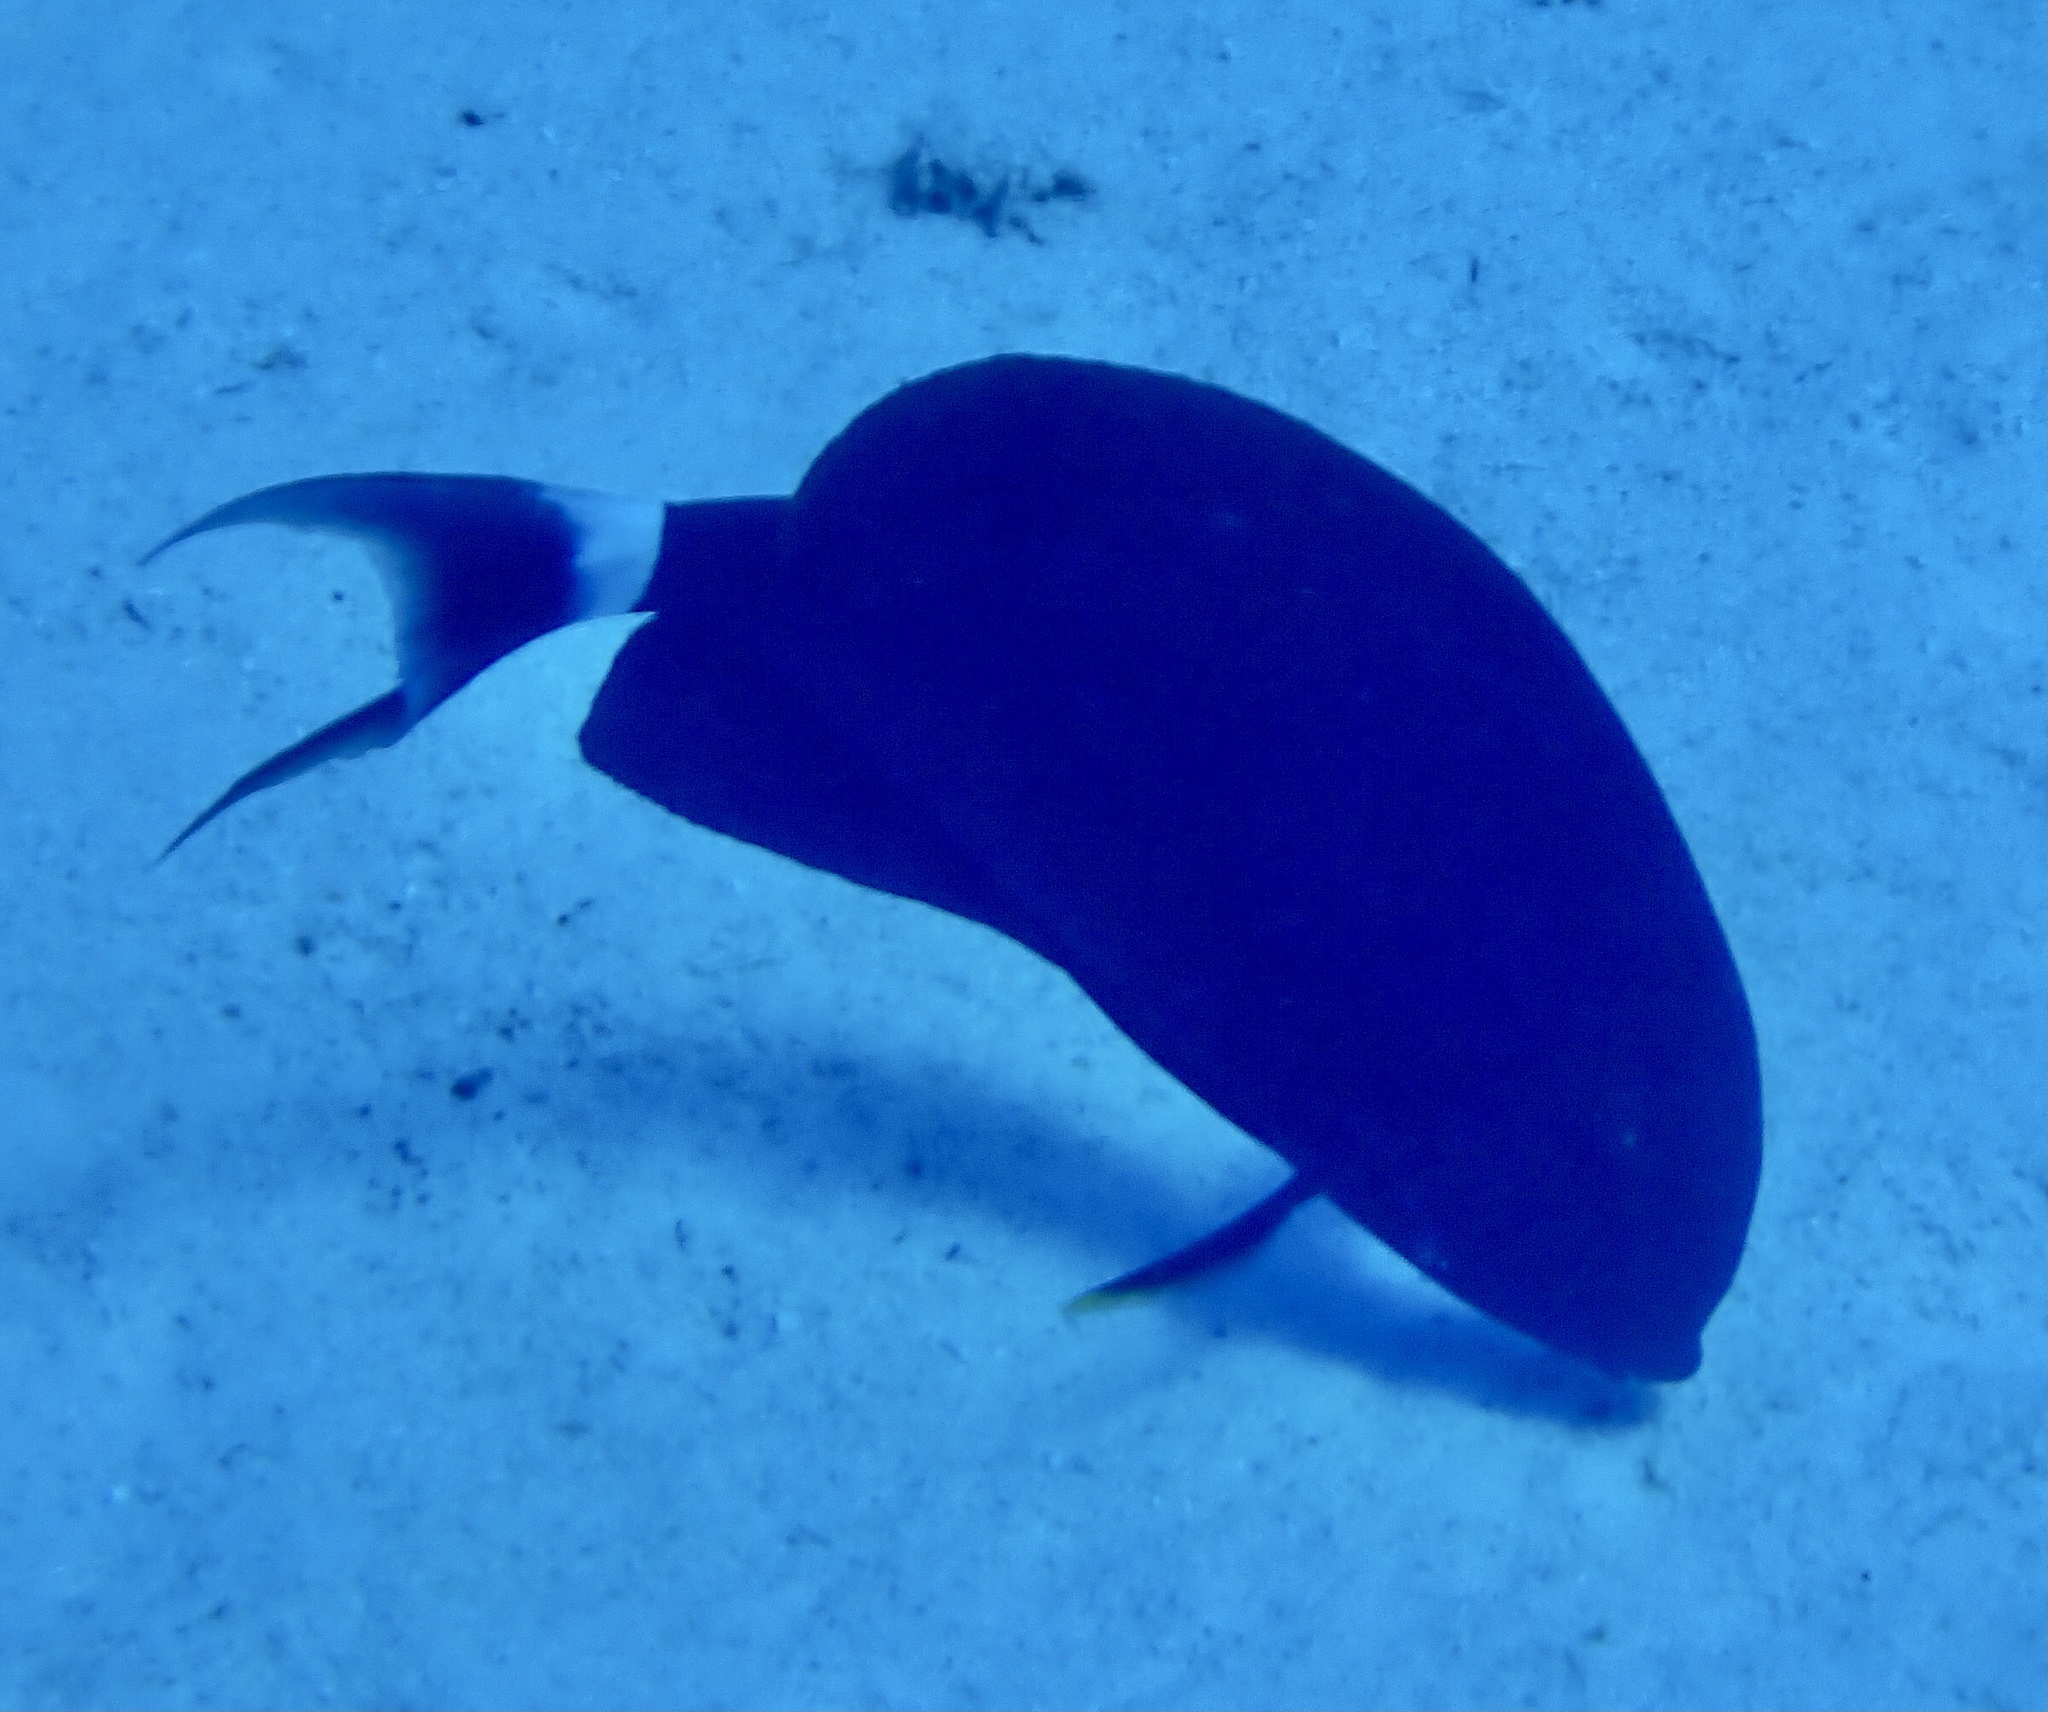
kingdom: Animalia
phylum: Chordata
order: Perciformes
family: Acanthuridae
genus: Acanthurus
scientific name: Acanthurus gahhm
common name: Black surgeonfish
